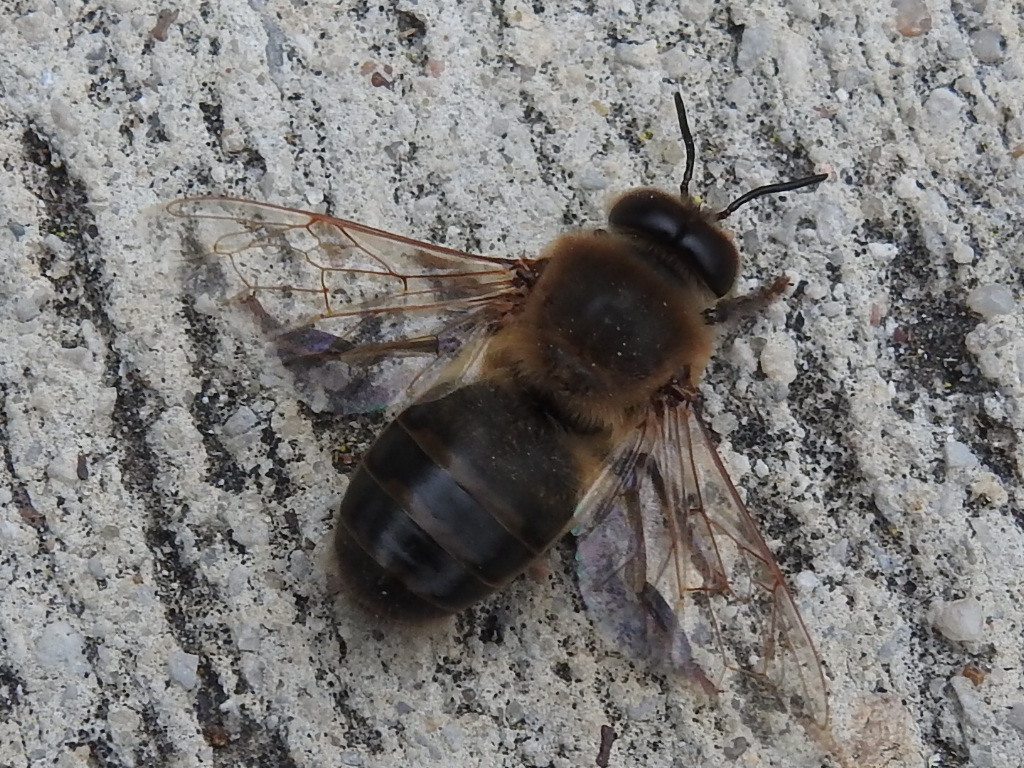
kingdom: Animalia
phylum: Arthropoda
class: Insecta
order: Hymenoptera
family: Apidae
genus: Apis
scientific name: Apis mellifera
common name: Honey bee
